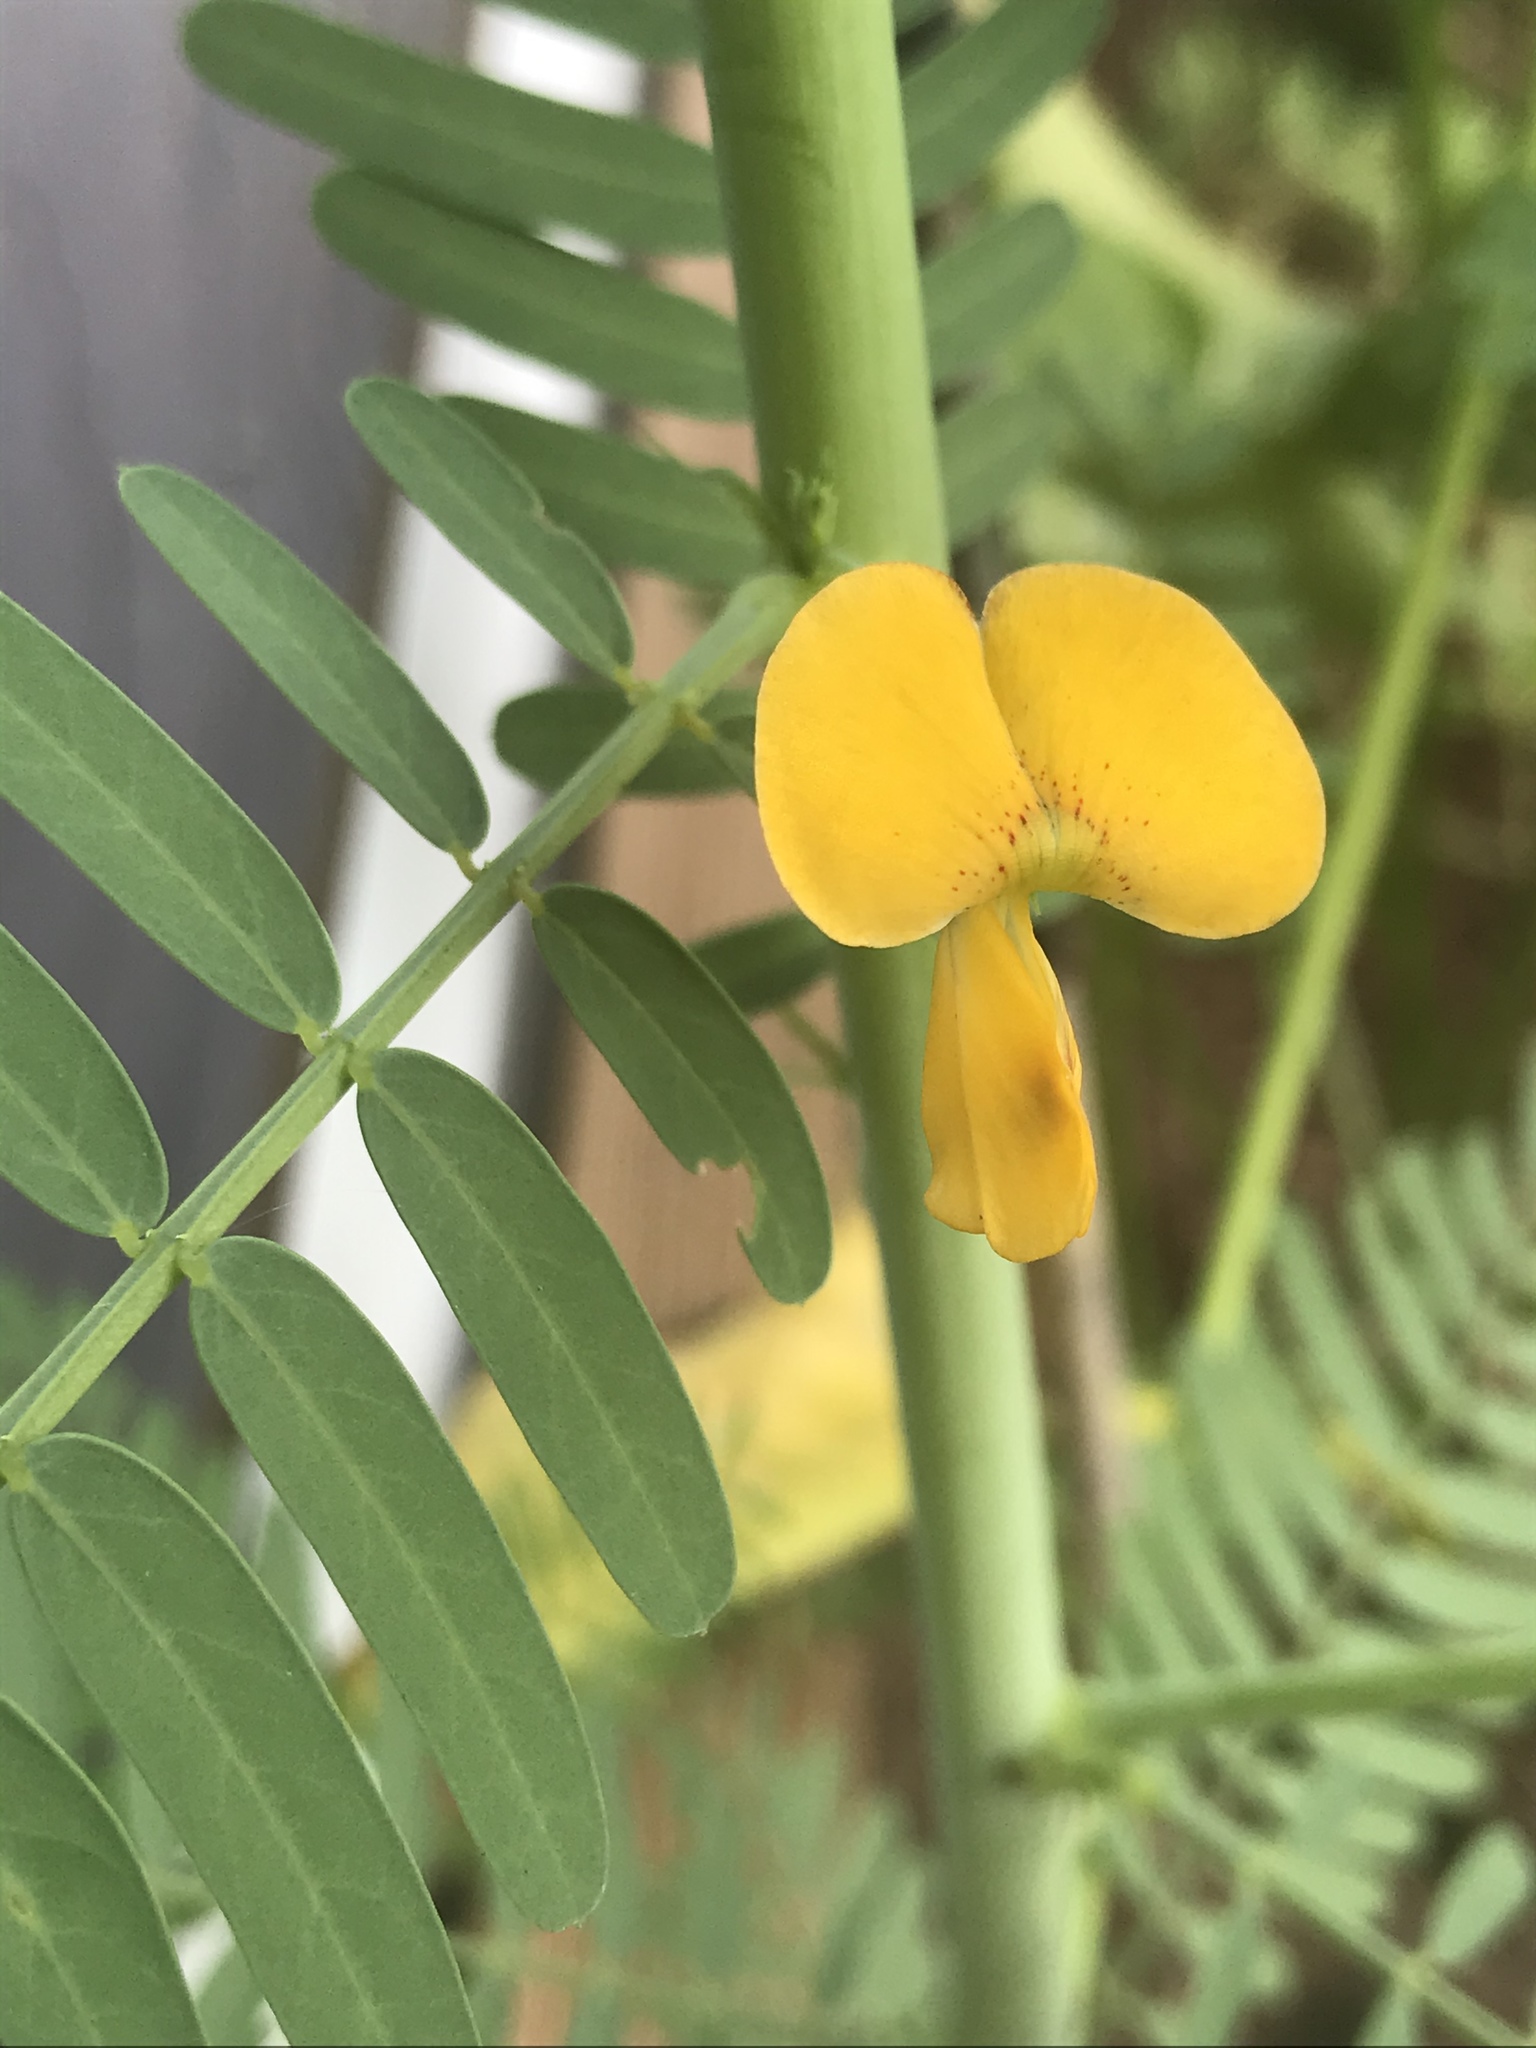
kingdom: Plantae
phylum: Tracheophyta
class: Magnoliopsida
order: Fabales
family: Fabaceae
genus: Sesbania
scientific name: Sesbania herbacea
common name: Bigpod sesbania
